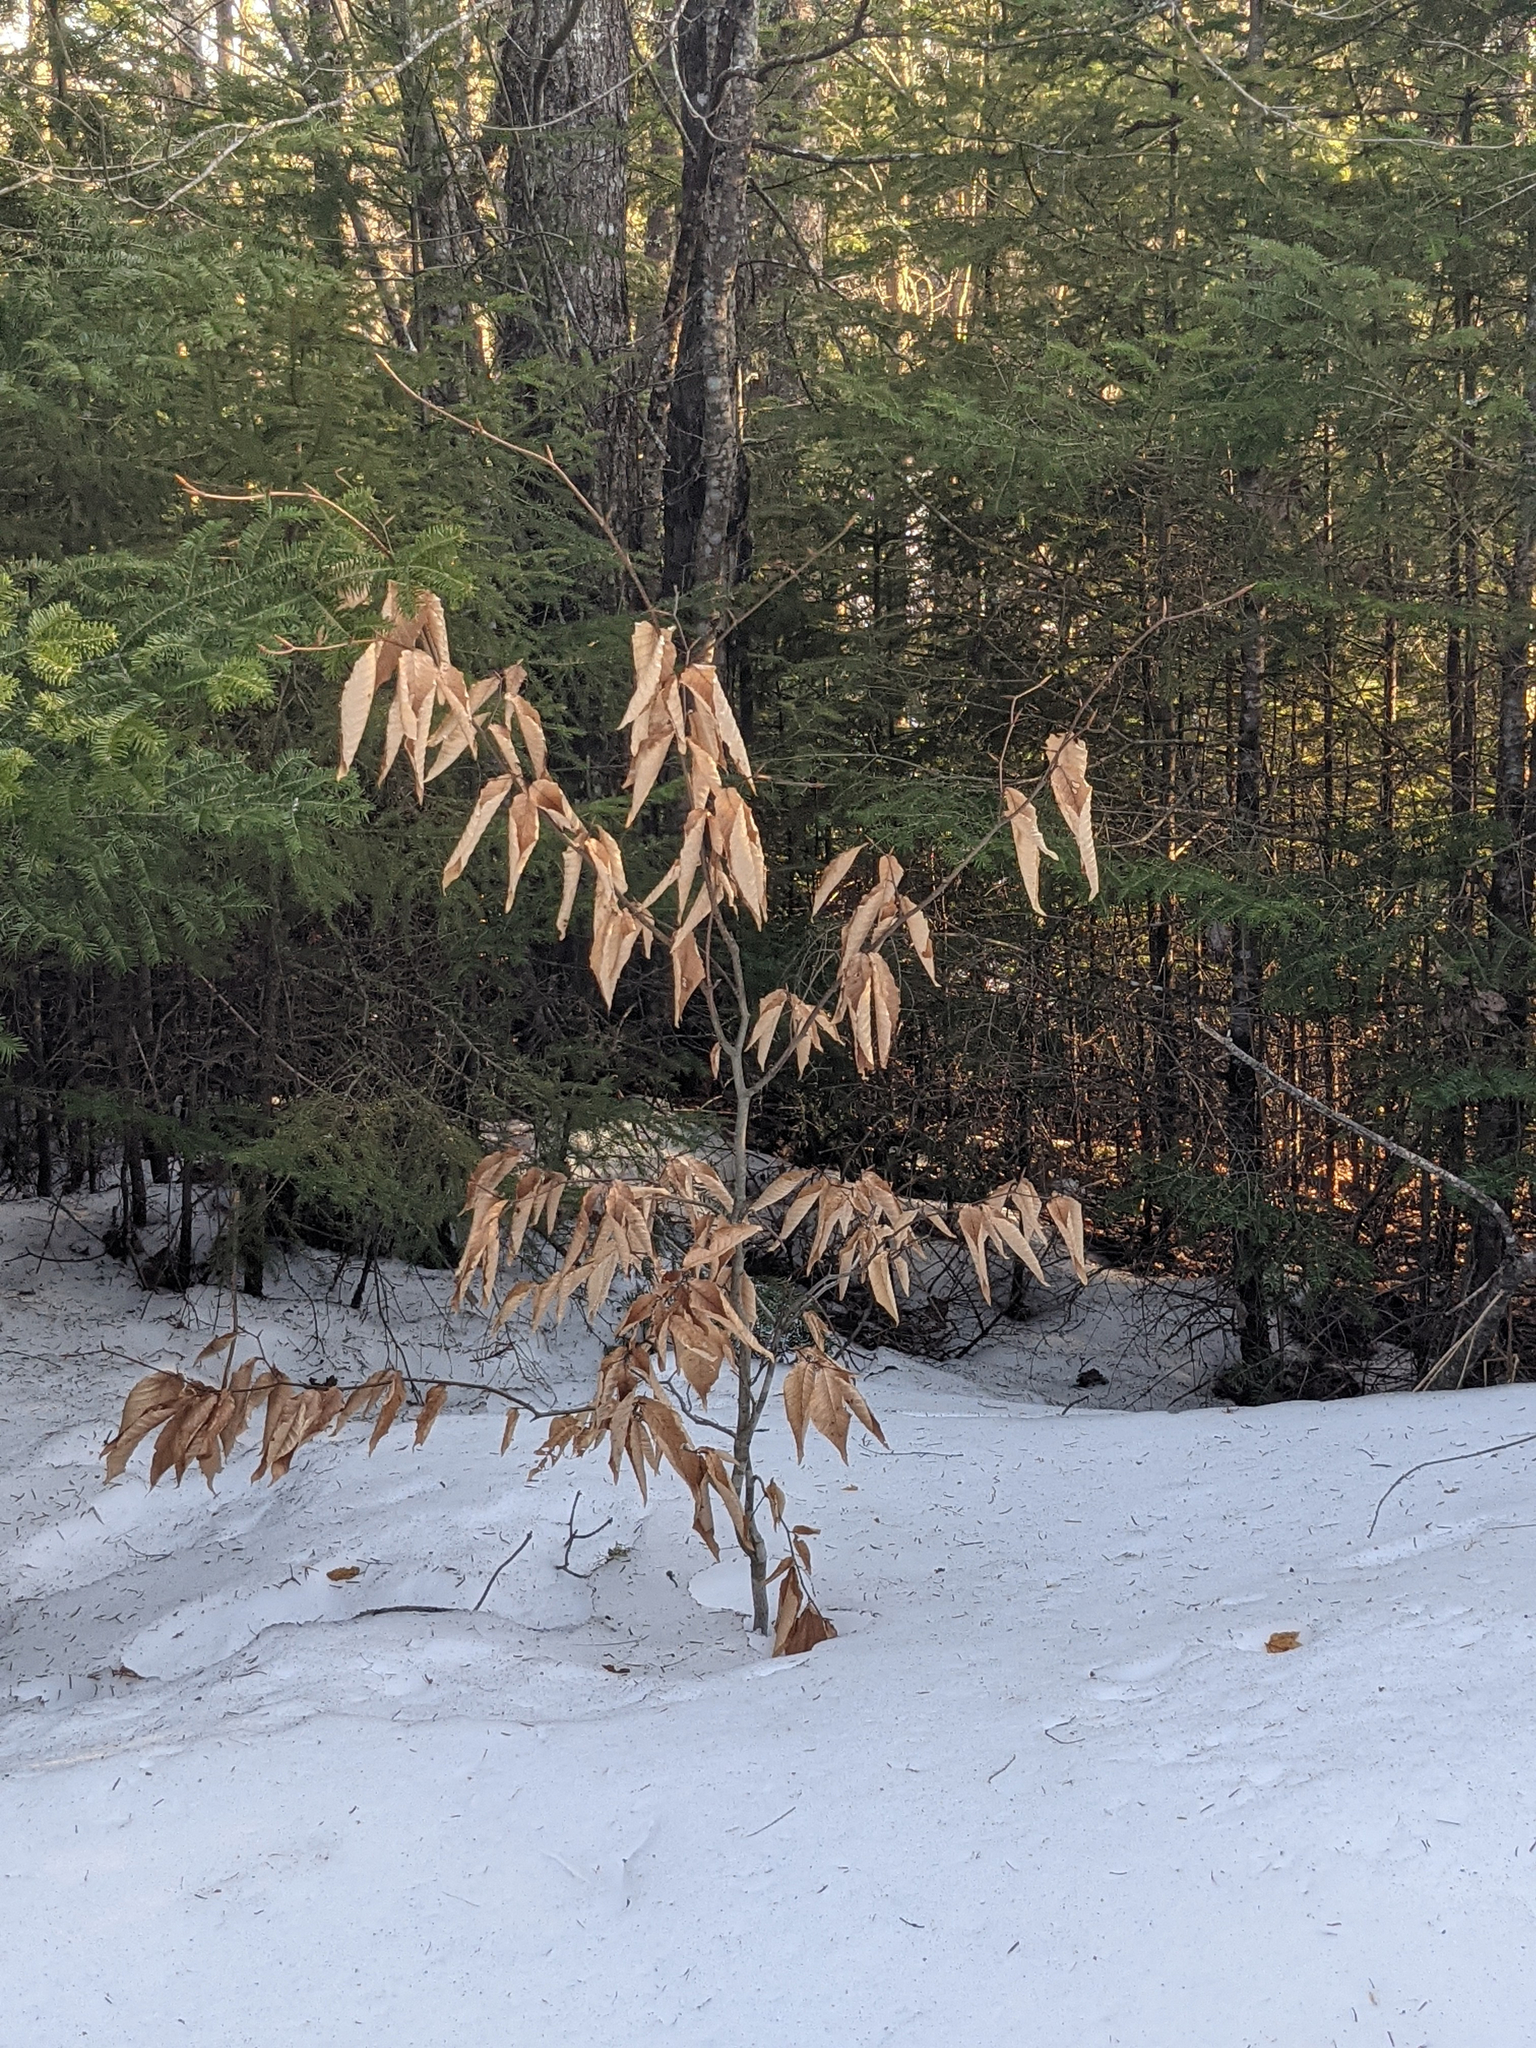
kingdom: Plantae
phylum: Tracheophyta
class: Magnoliopsida
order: Fagales
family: Fagaceae
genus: Fagus
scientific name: Fagus grandifolia
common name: American beech
